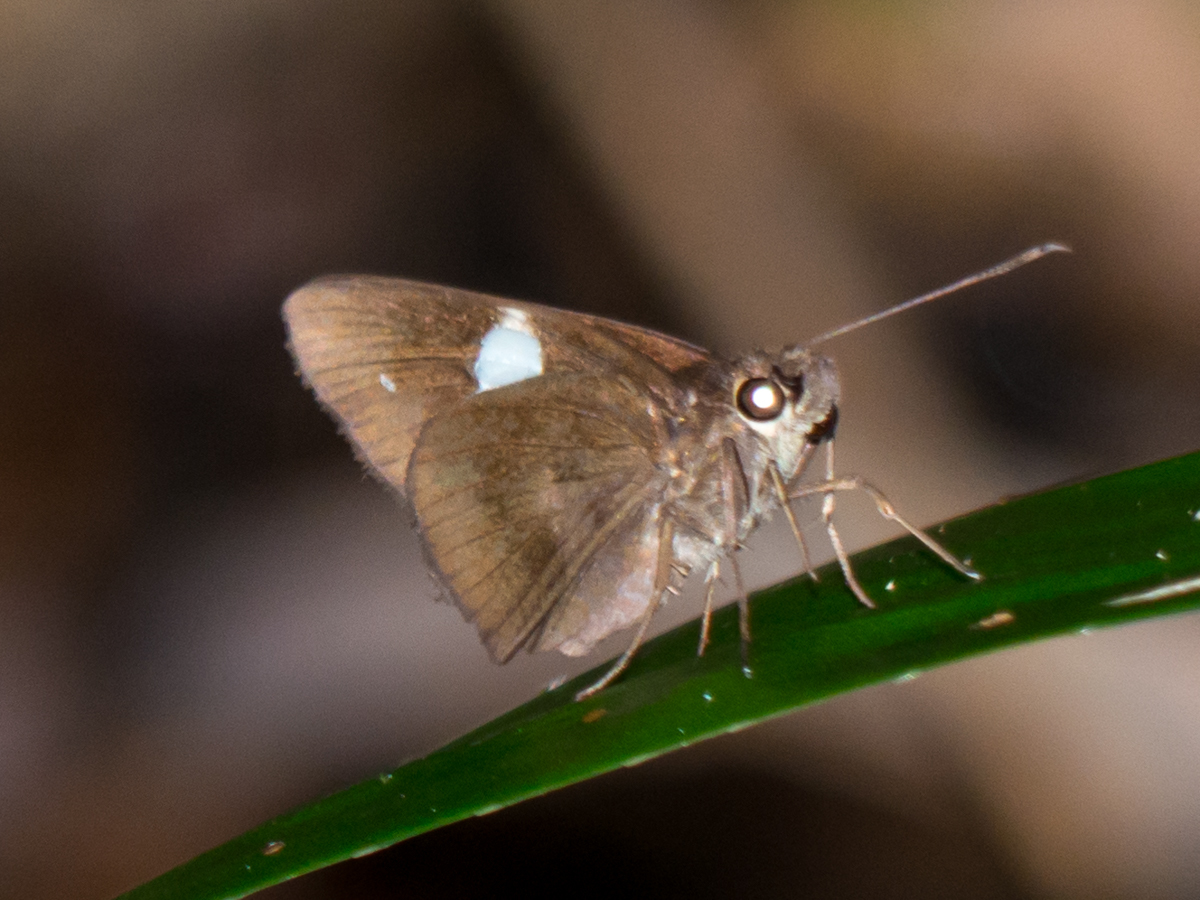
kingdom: Animalia
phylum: Arthropoda
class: Insecta
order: Lepidoptera
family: Hesperiidae
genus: Notocrypta
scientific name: Notocrypta paralysos
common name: Common banded demon
